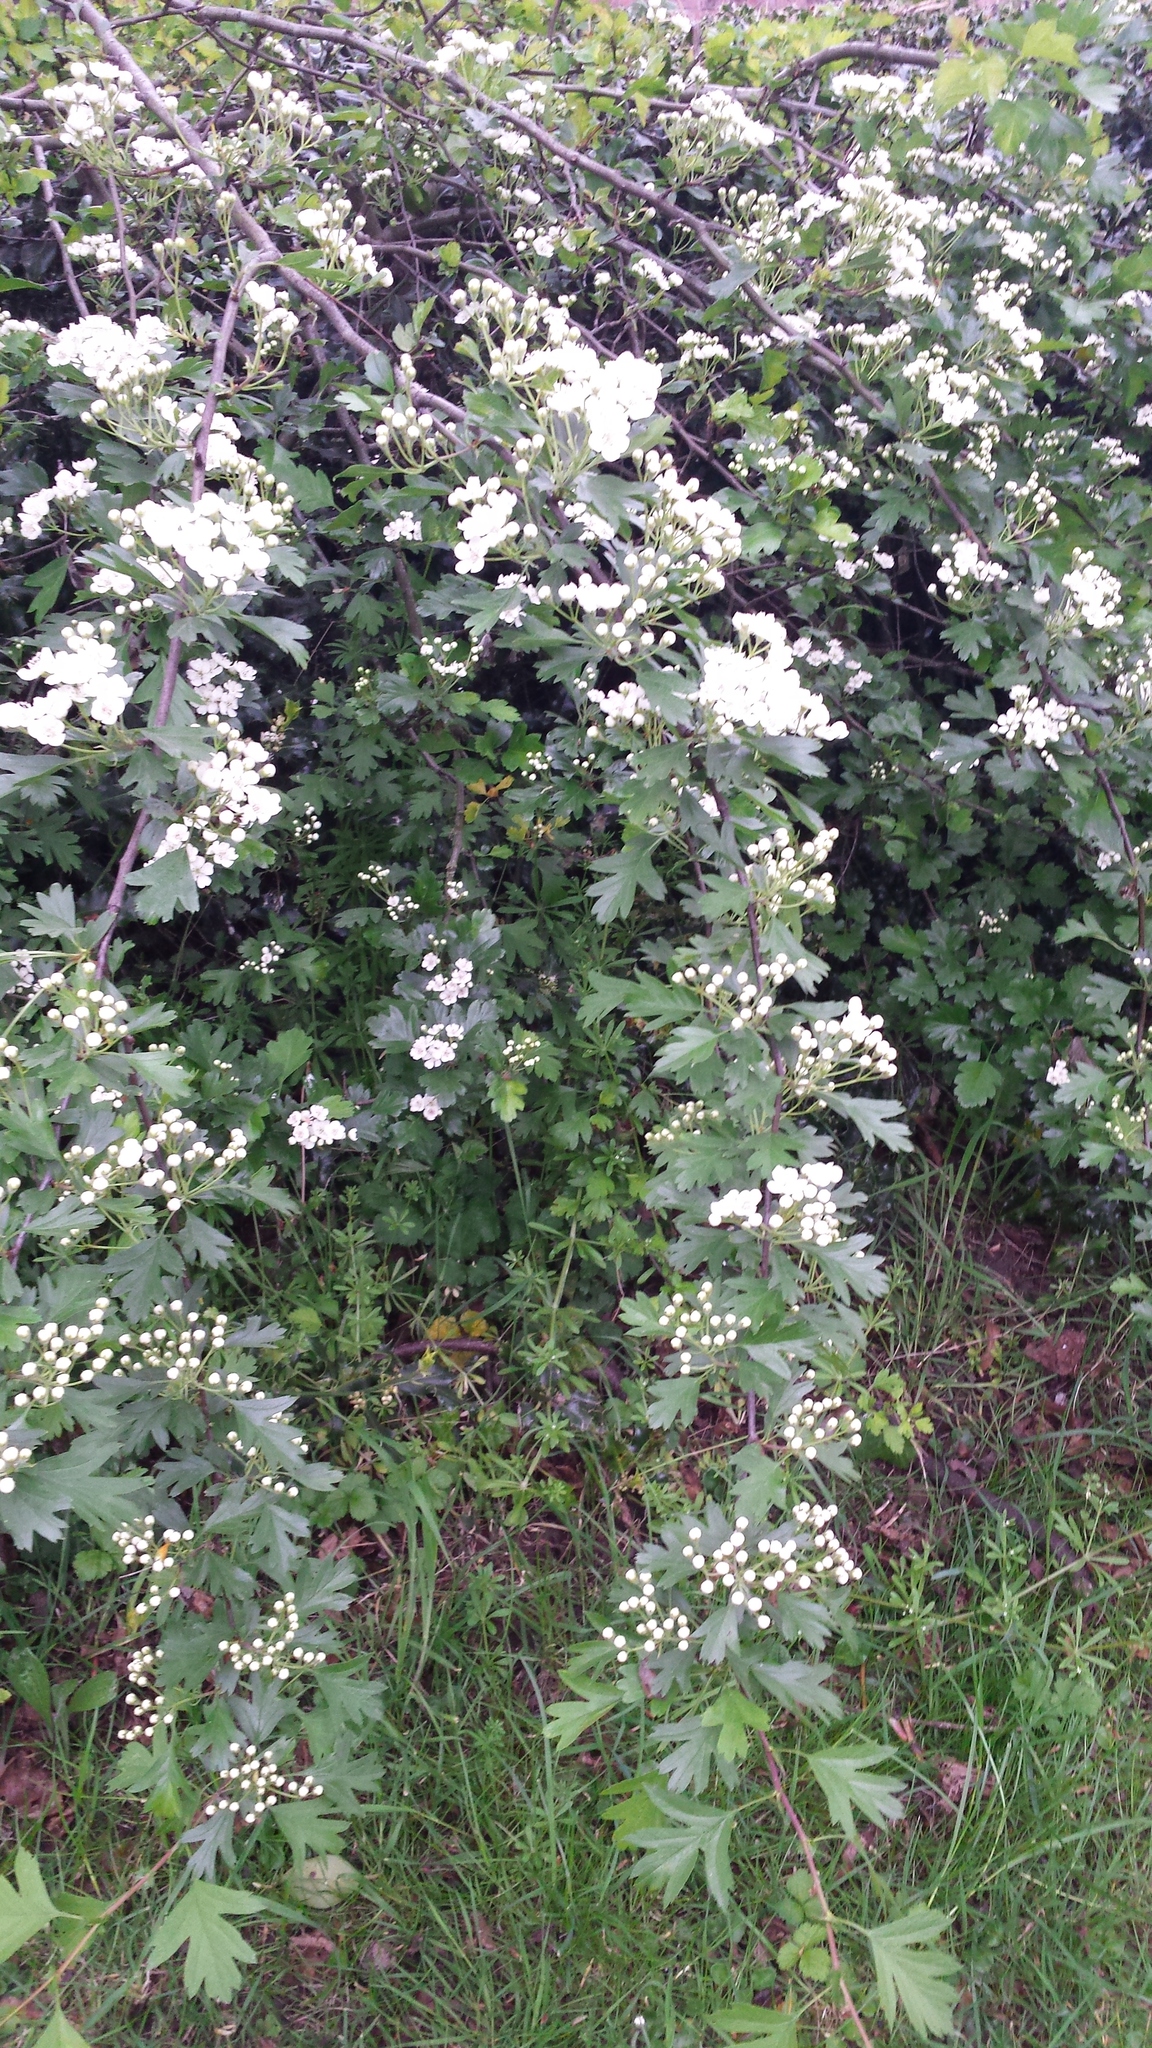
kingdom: Plantae
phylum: Tracheophyta
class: Magnoliopsida
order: Rosales
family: Rosaceae
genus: Crataegus
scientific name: Crataegus monogyna
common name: Hawthorn
